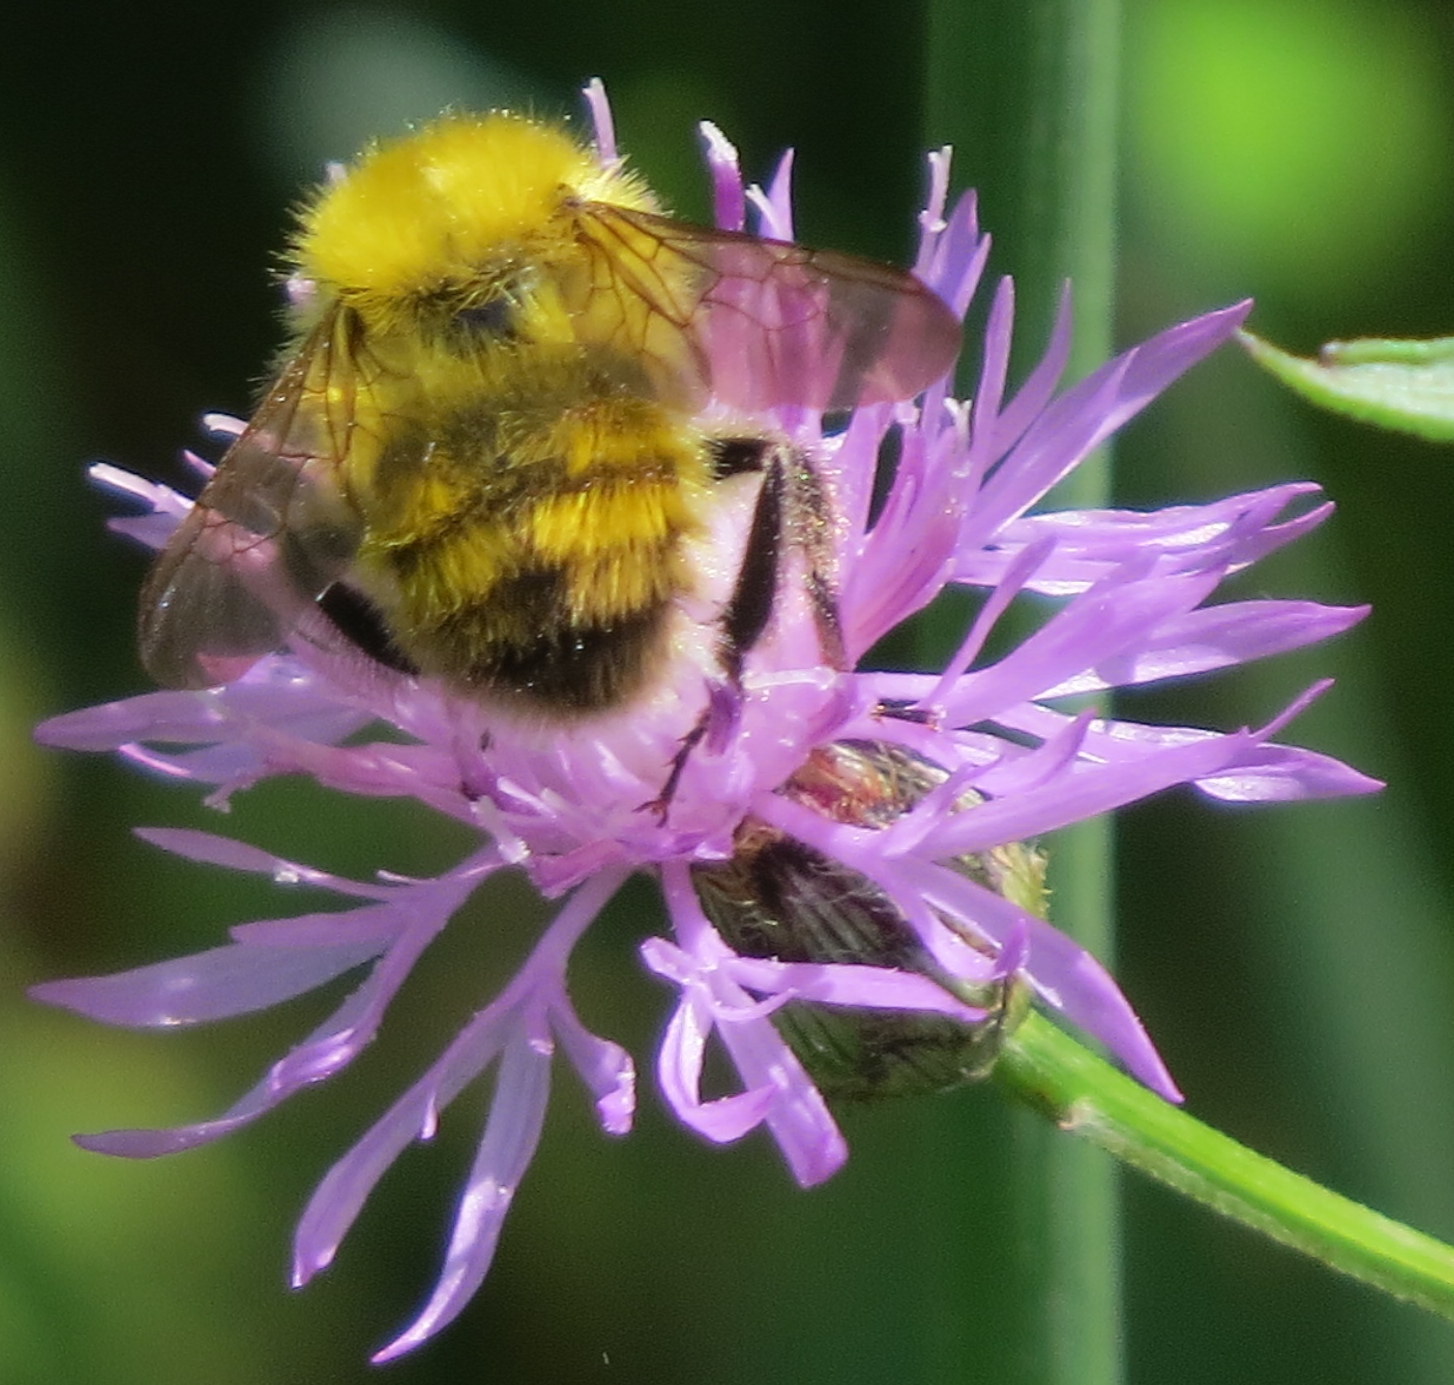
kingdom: Animalia
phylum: Arthropoda
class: Insecta
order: Hymenoptera
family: Apidae
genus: Bombus
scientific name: Bombus perplexus
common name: Confusing bumble bee
